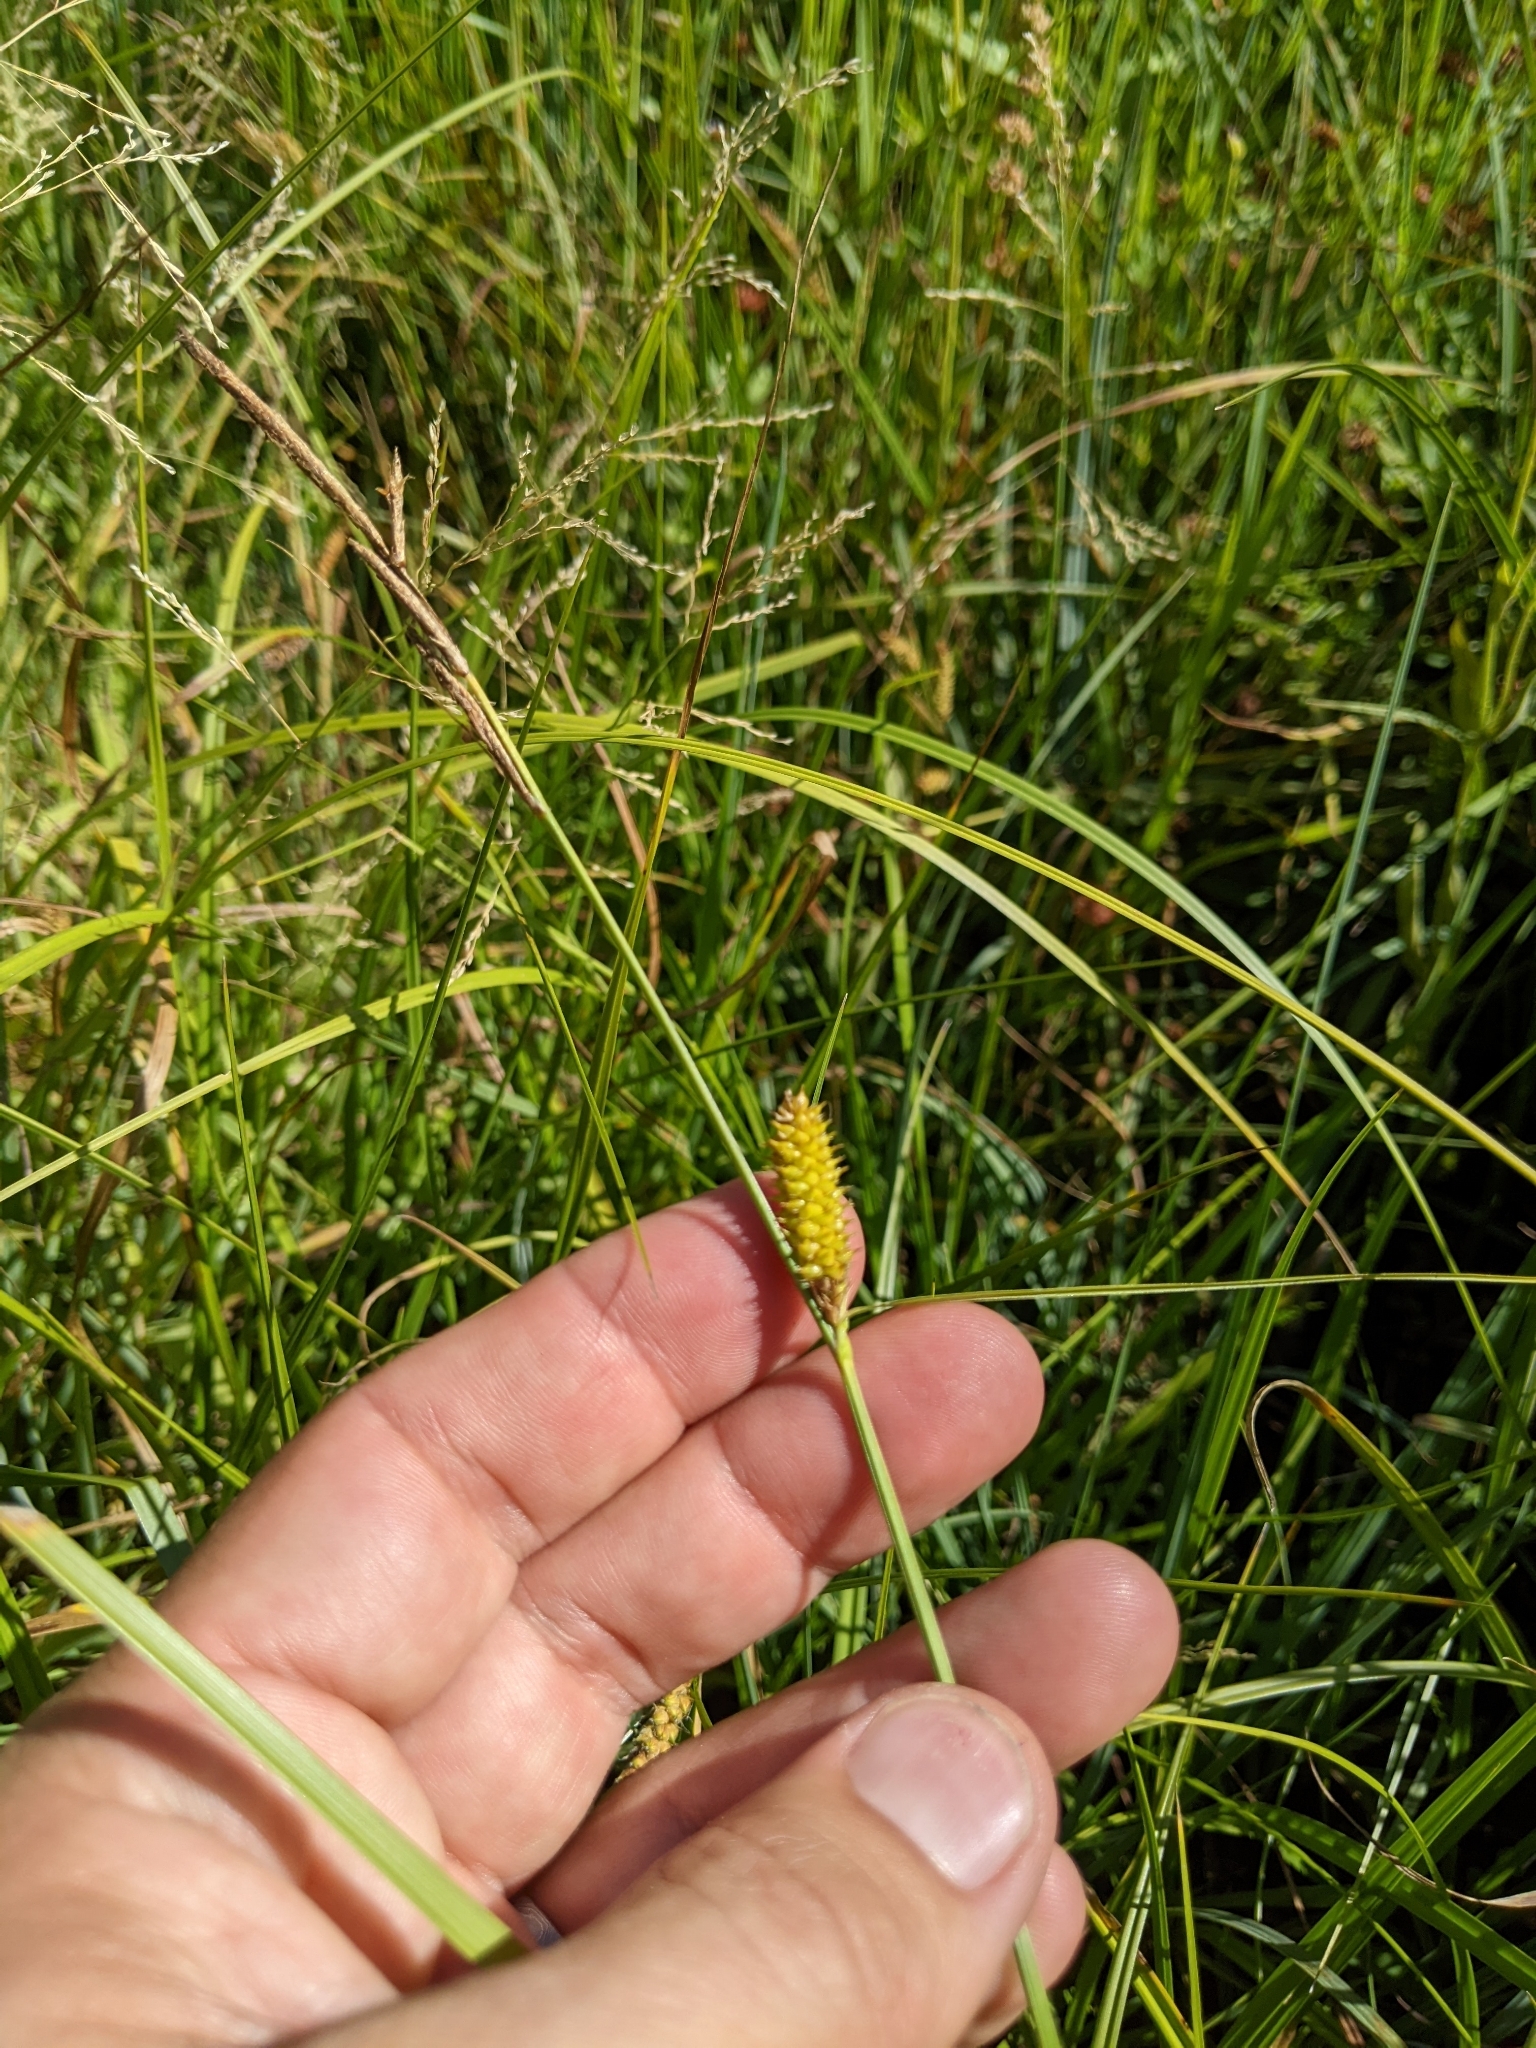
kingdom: Plantae
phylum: Tracheophyta
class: Liliopsida
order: Poales
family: Cyperaceae
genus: Carex
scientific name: Carex utriculata
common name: Beaked sedge
